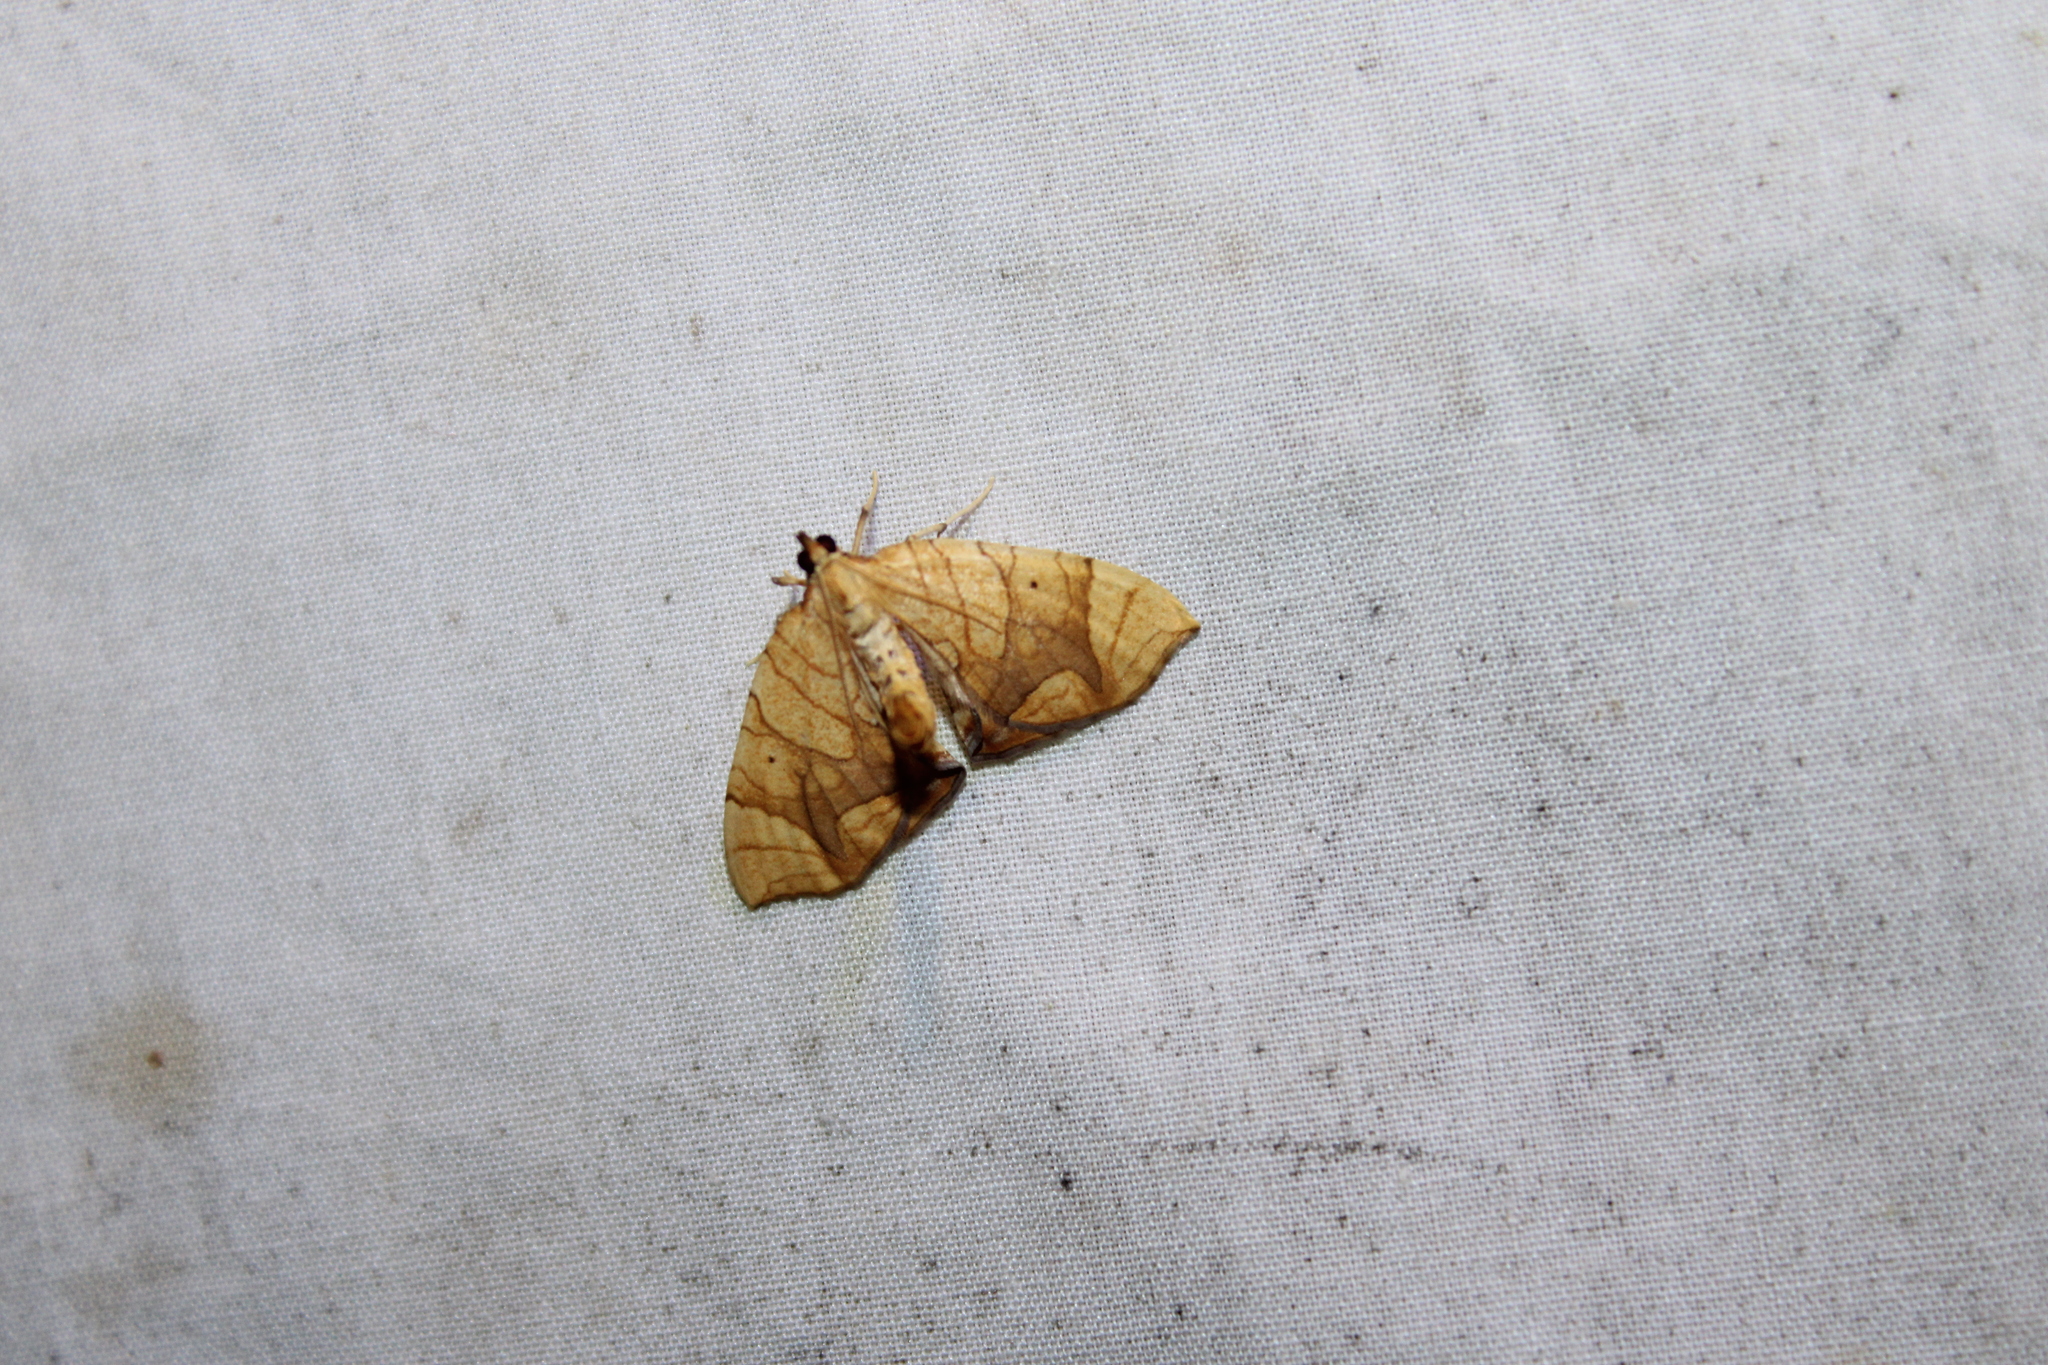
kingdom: Animalia
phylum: Arthropoda
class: Insecta
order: Lepidoptera
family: Geometridae
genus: Eulithis
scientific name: Eulithis
